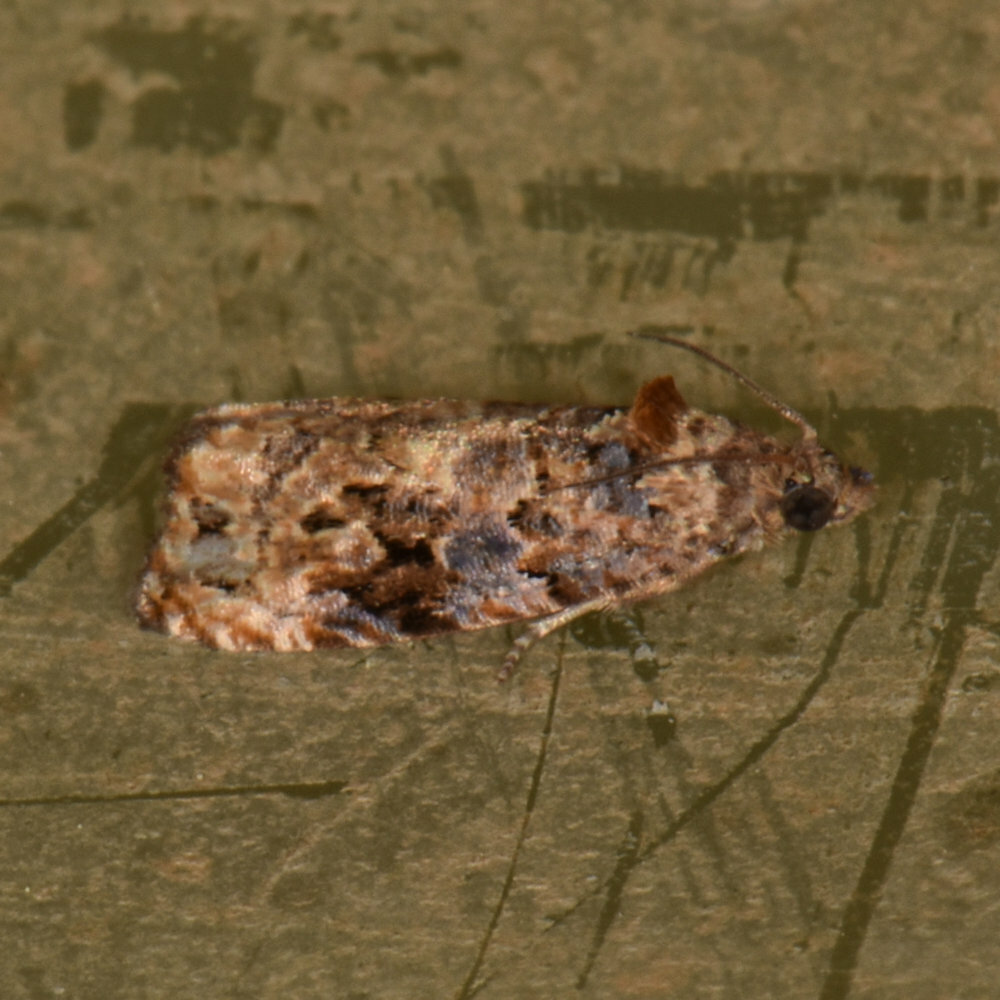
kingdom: Animalia
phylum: Arthropoda
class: Insecta
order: Lepidoptera
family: Tortricidae
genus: Endothenia
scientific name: Endothenia hebesana
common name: Verbena bud moth
